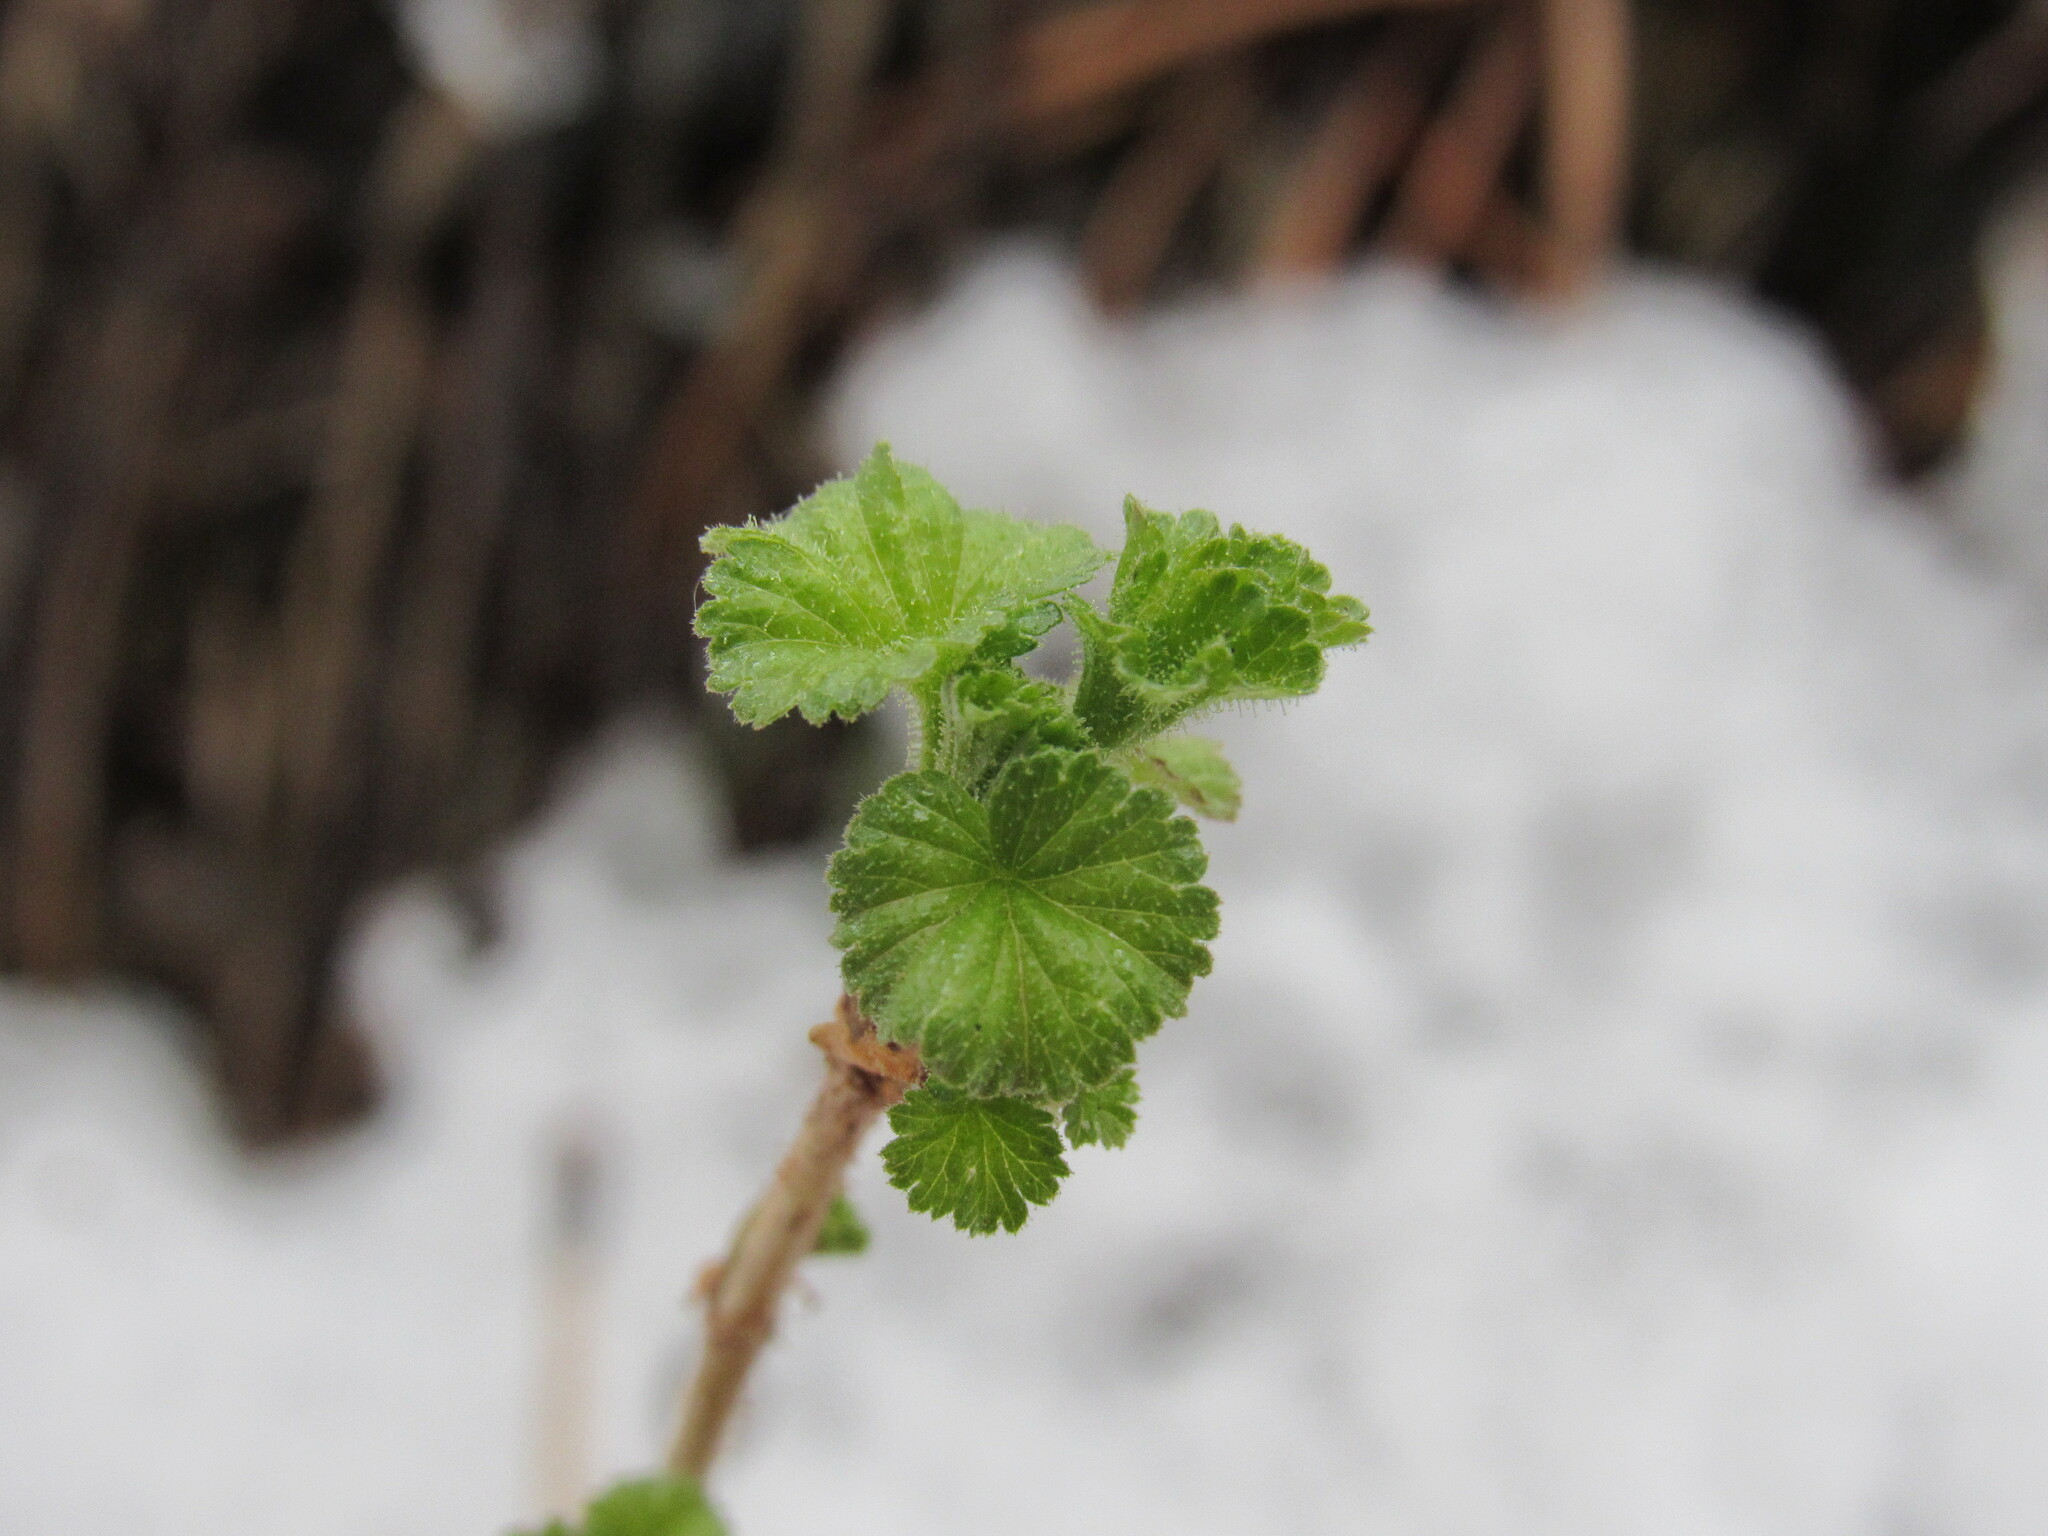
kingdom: Plantae
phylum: Tracheophyta
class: Magnoliopsida
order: Saxifragales
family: Grossulariaceae
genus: Ribes
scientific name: Ribes cereum
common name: Wax currant
